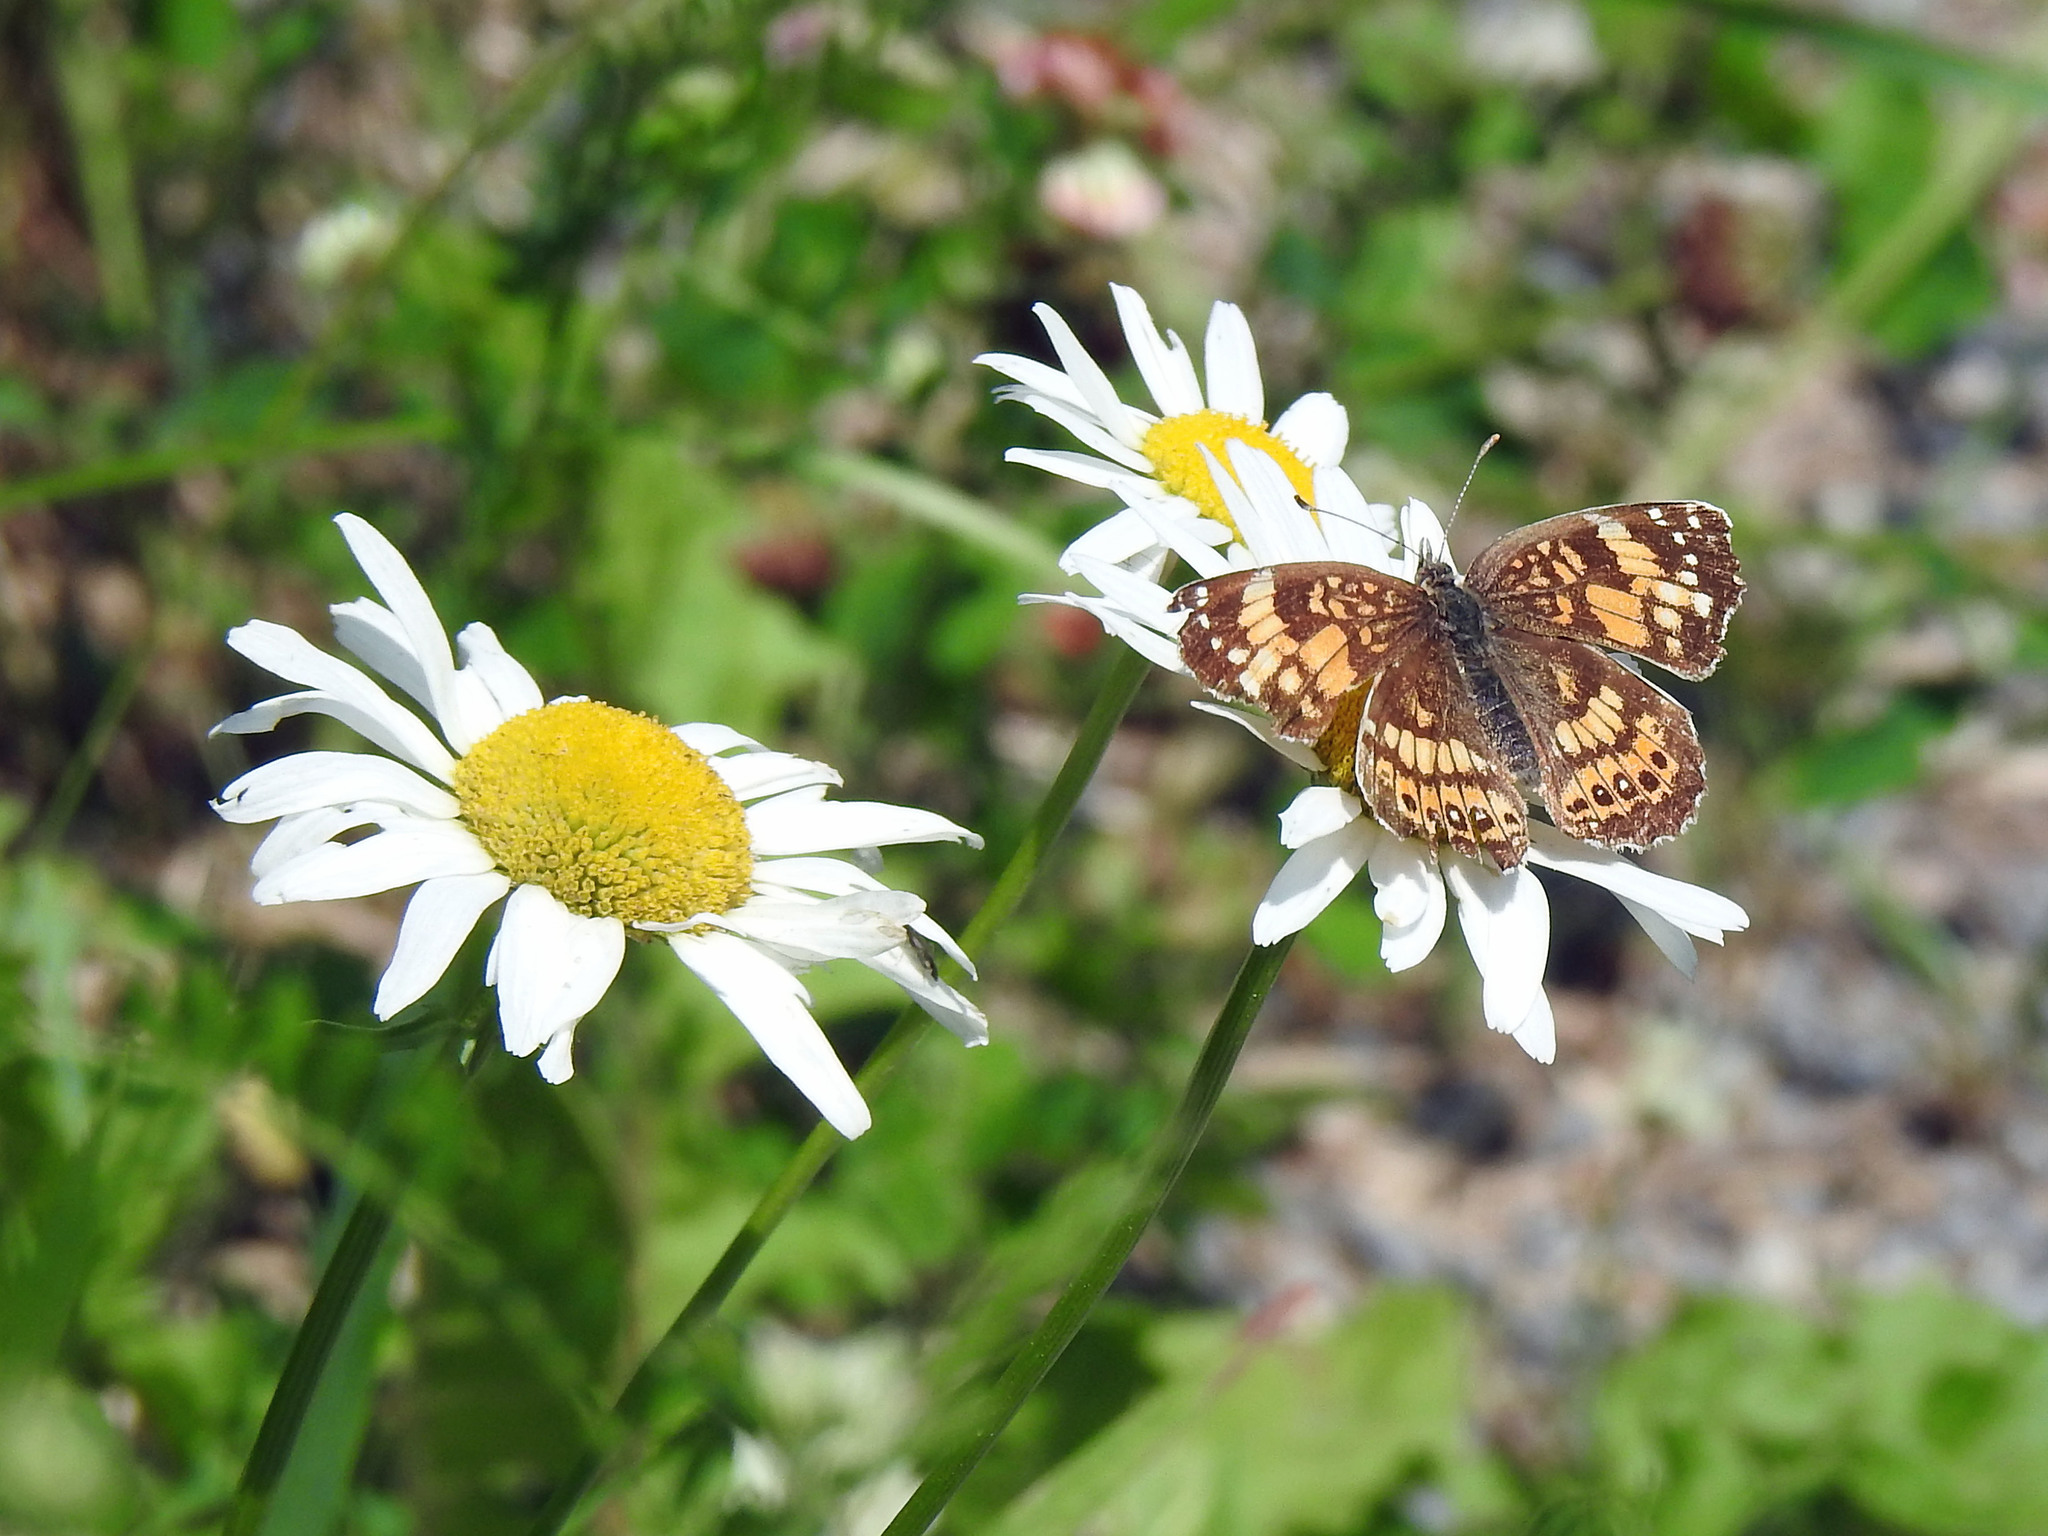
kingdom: Animalia
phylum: Arthropoda
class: Insecta
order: Lepidoptera
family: Nymphalidae
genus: Chlosyne
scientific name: Chlosyne nycteis
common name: Silvery checkerspot
